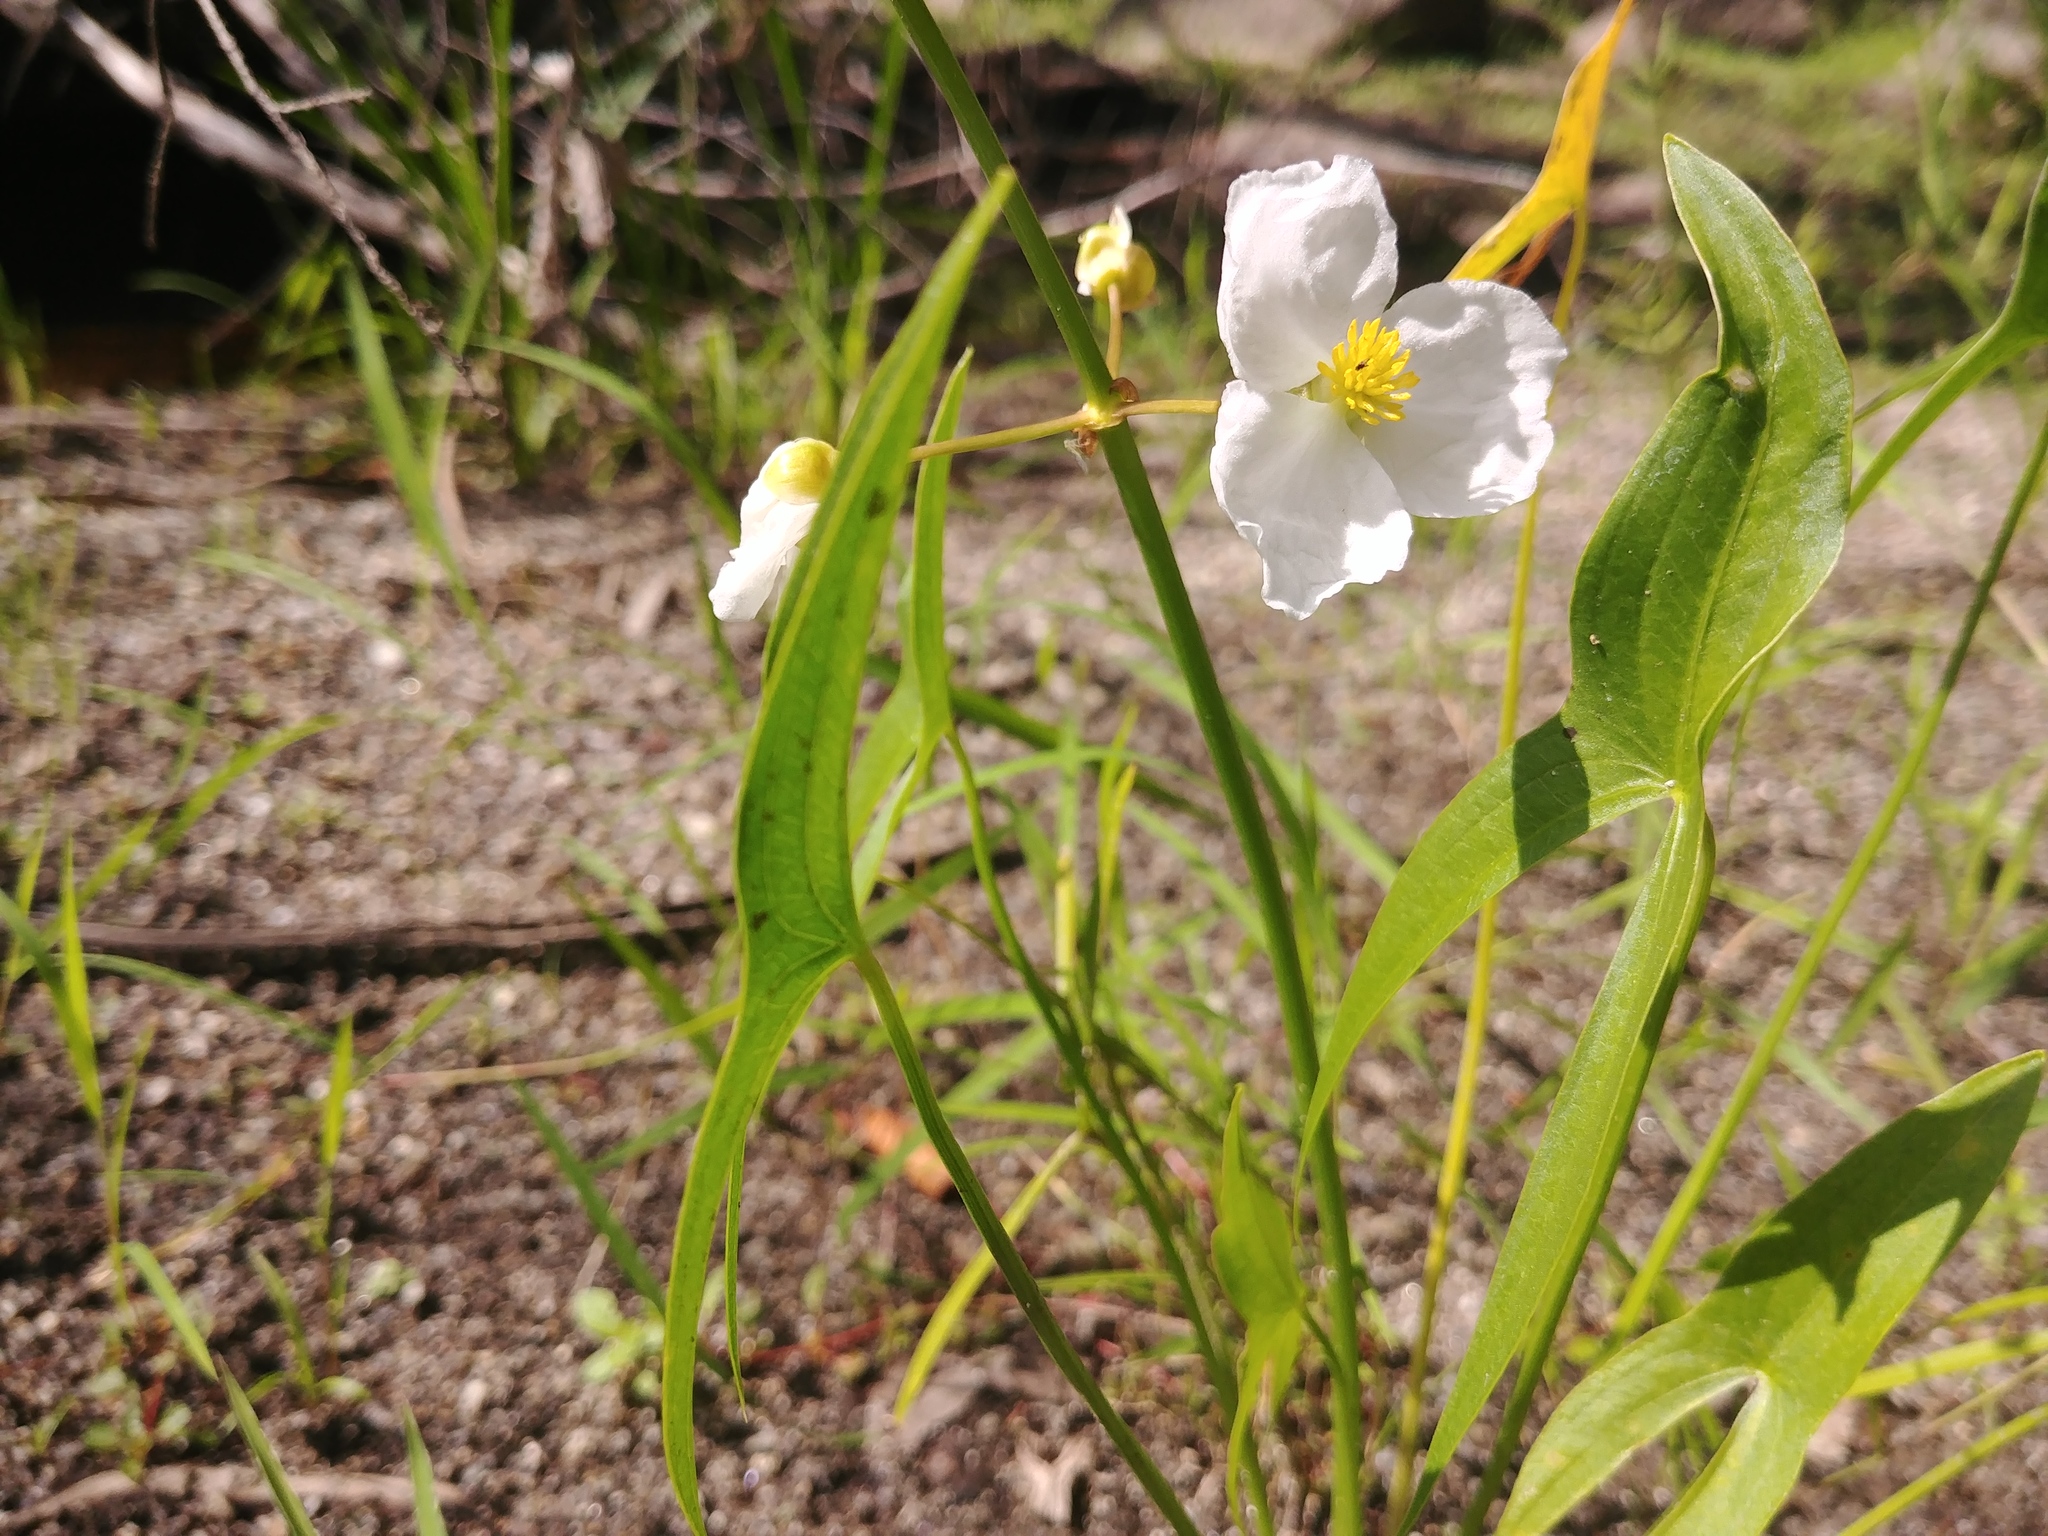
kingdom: Plantae
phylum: Tracheophyta
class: Liliopsida
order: Alismatales
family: Alismataceae
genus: Sagittaria
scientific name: Sagittaria latifolia
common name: Duck-potato
